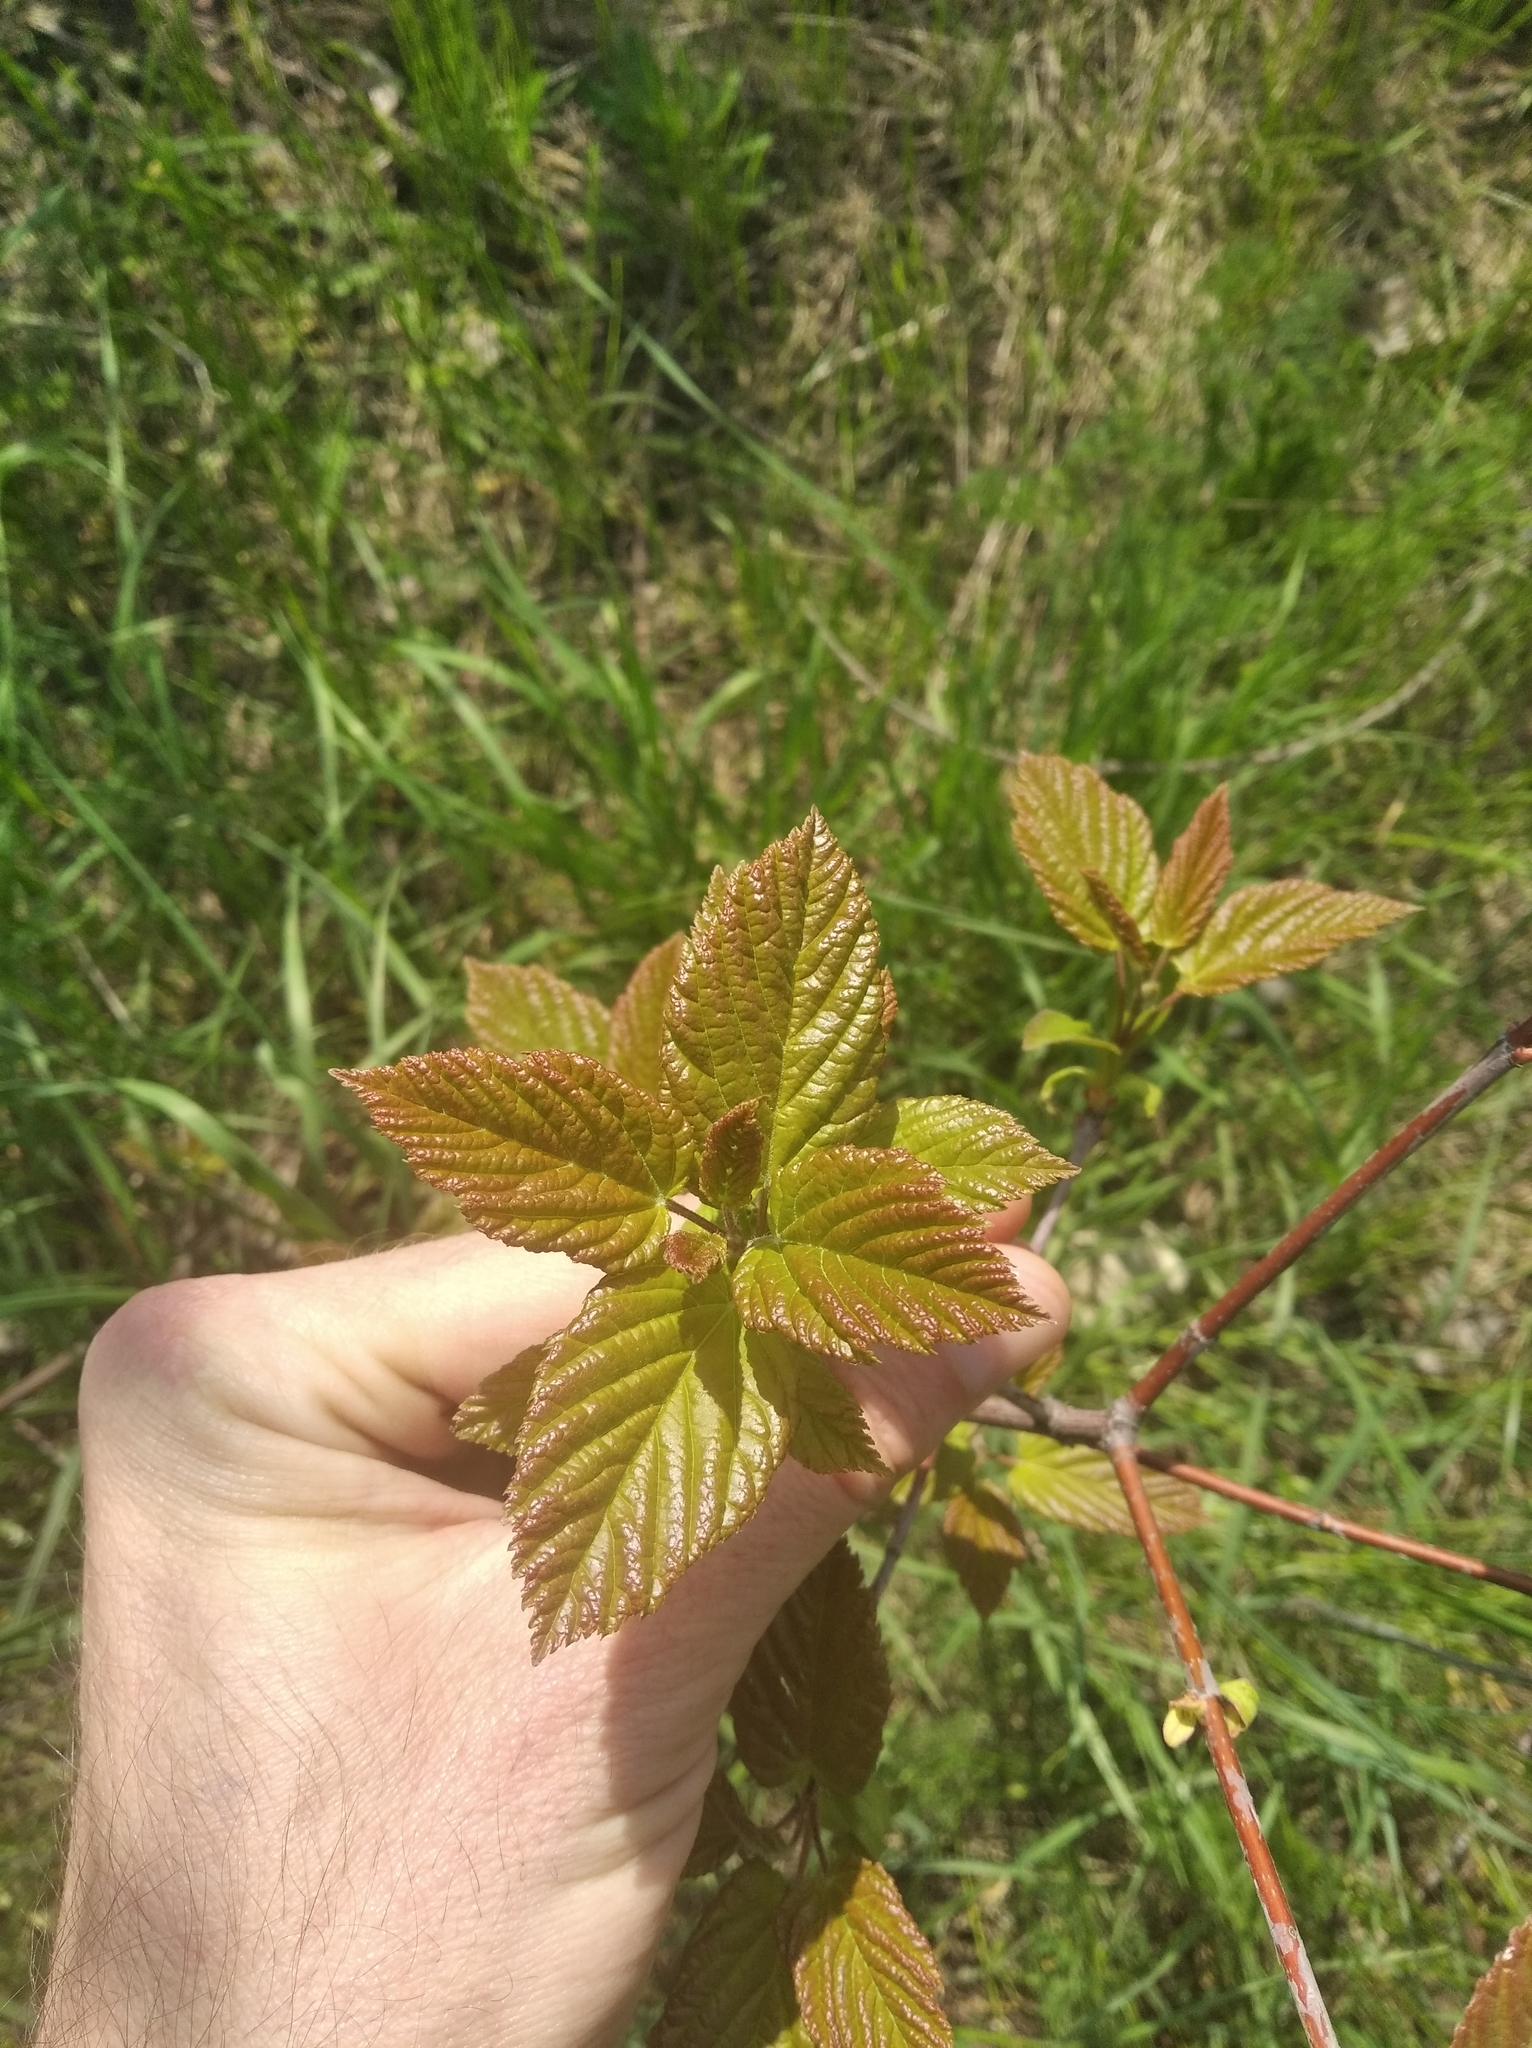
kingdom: Plantae
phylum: Tracheophyta
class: Magnoliopsida
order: Sapindales
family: Sapindaceae
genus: Acer
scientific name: Acer tataricum
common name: Tartar maple
